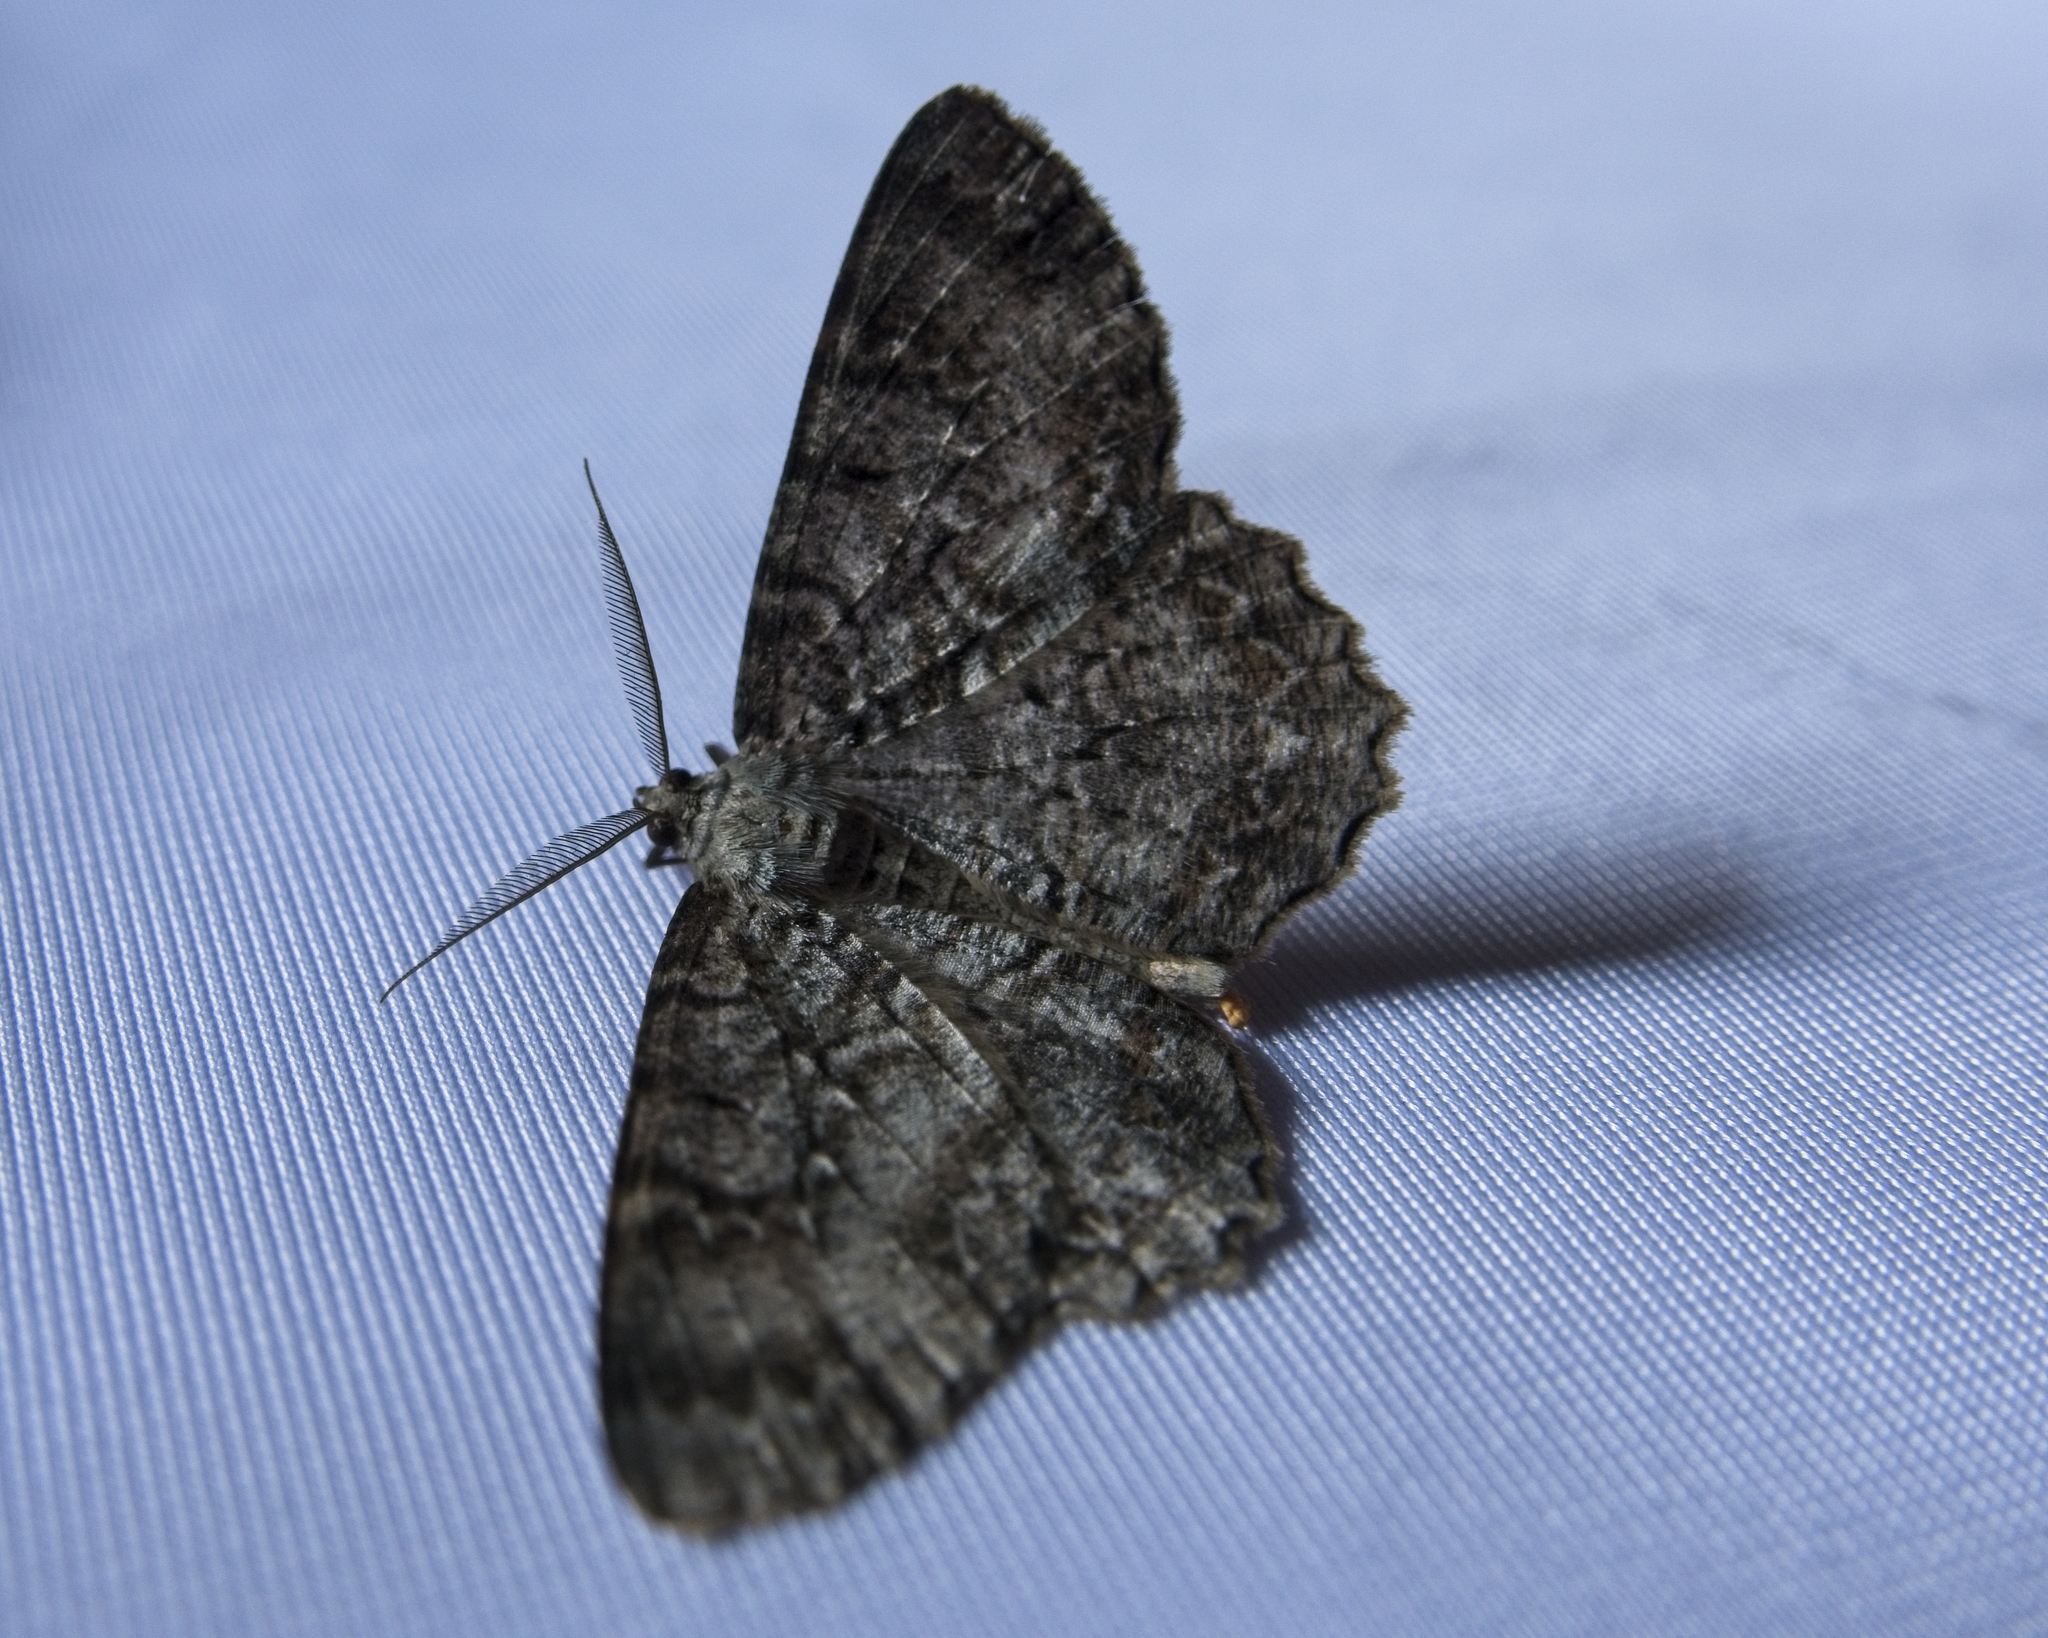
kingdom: Animalia
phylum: Arthropoda
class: Insecta
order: Lepidoptera
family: Geometridae
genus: Epimecis
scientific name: Epimecis hortaria
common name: Tulip-tree beauty
